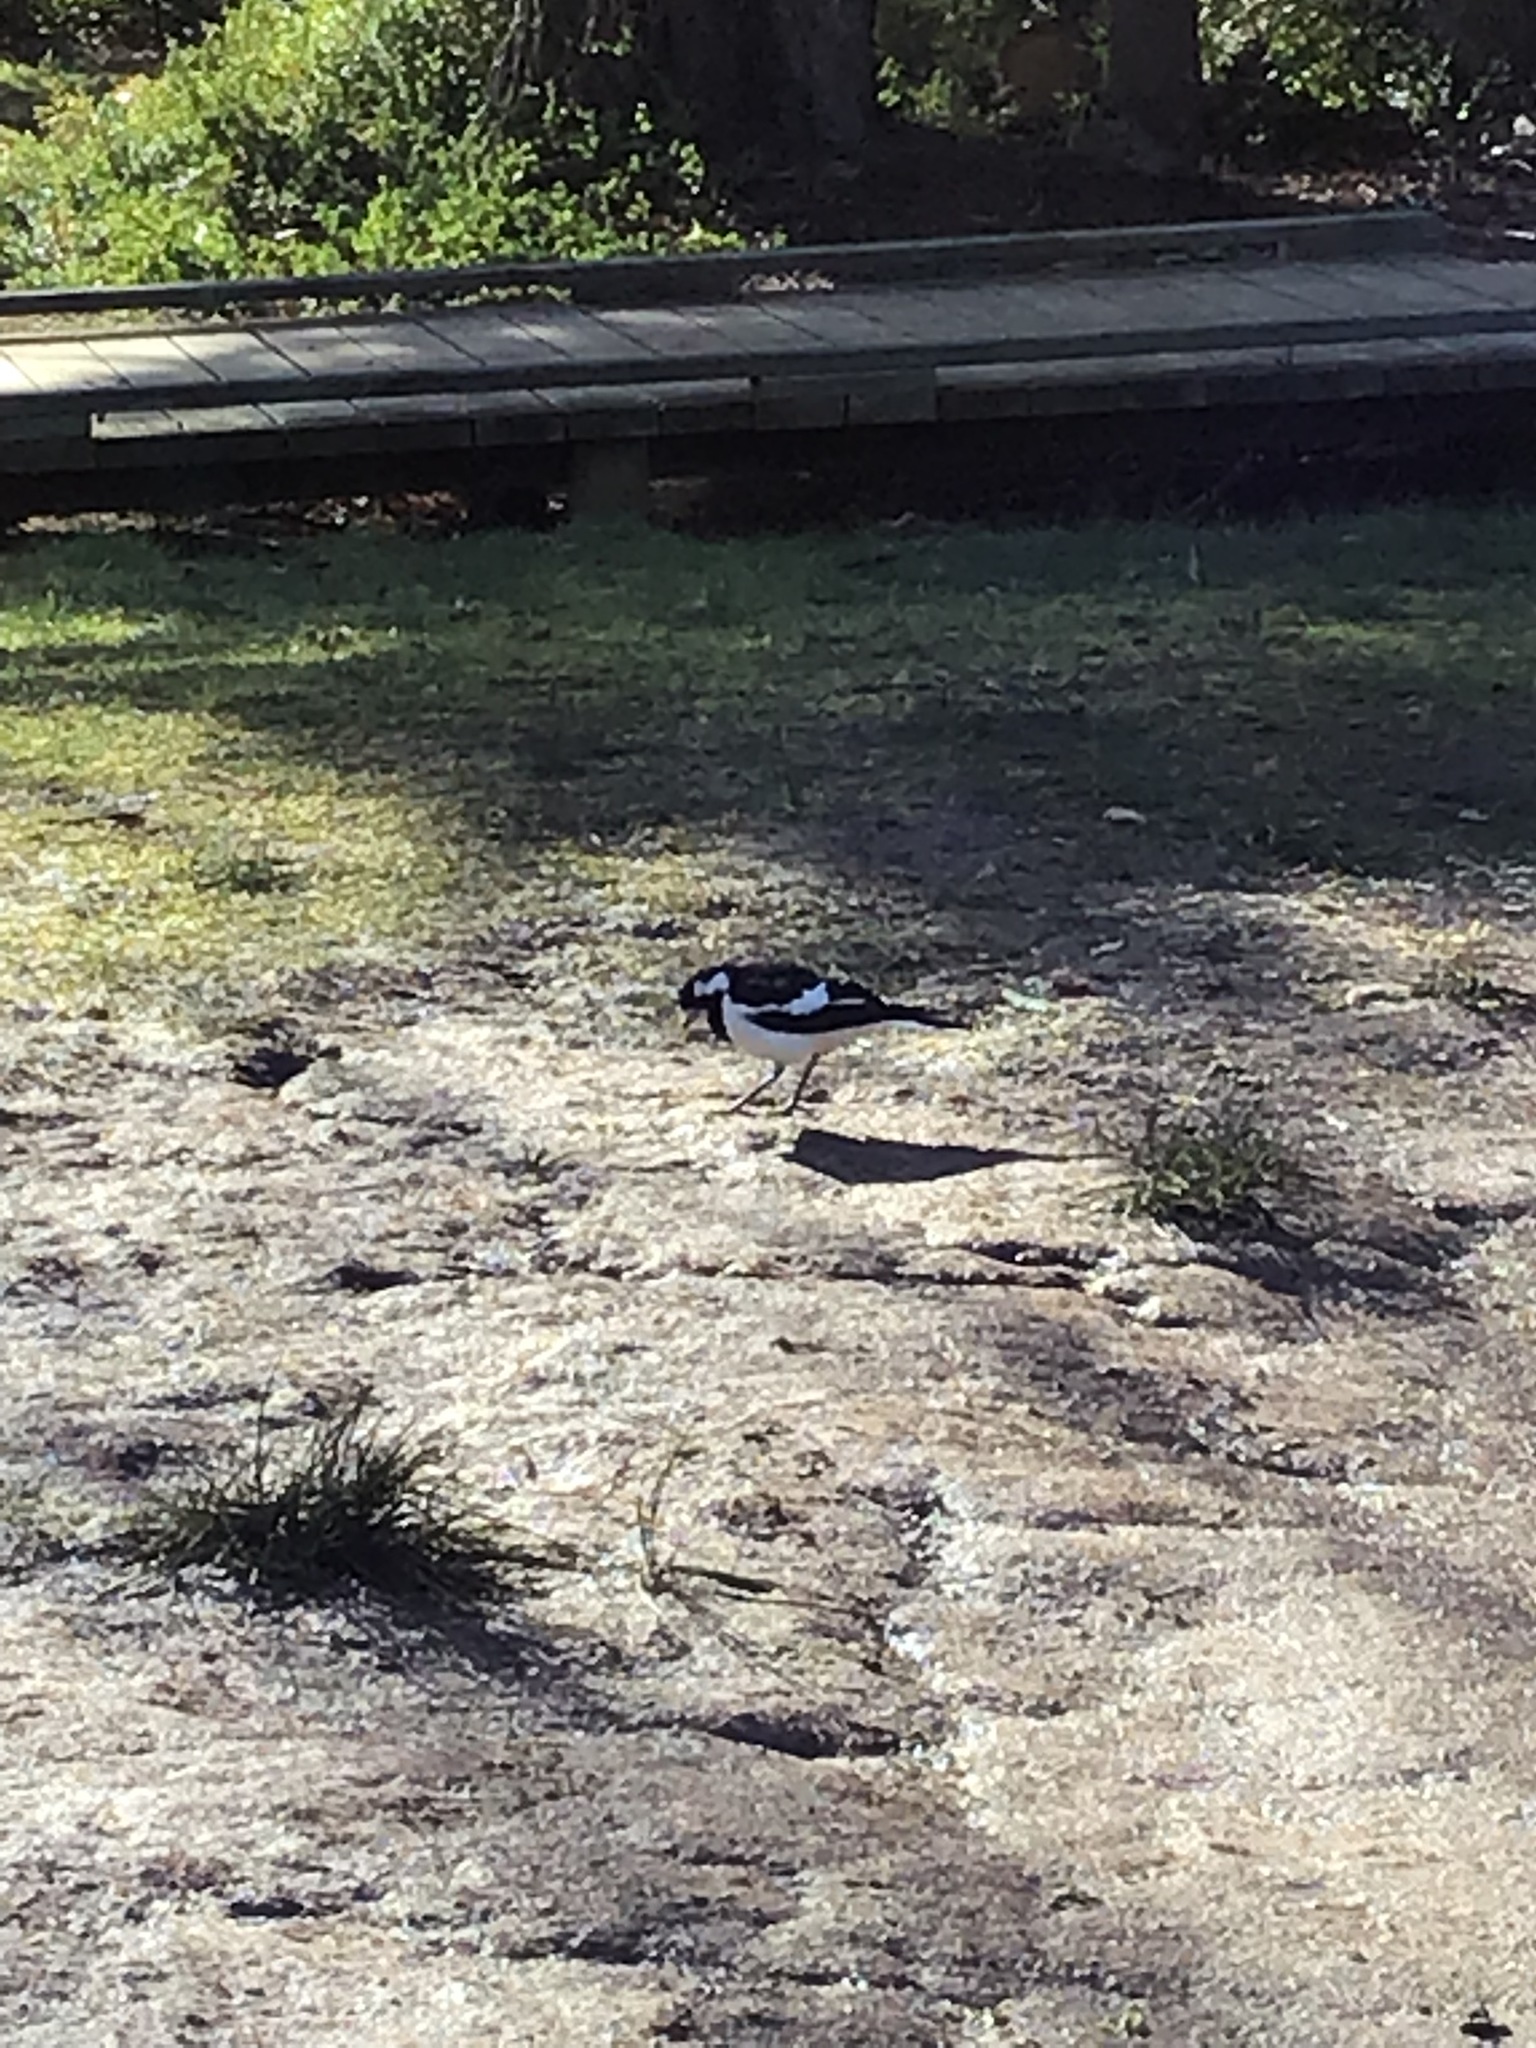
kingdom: Animalia
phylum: Chordata
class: Aves
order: Passeriformes
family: Monarchidae
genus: Grallina
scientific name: Grallina cyanoleuca
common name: Magpie-lark
